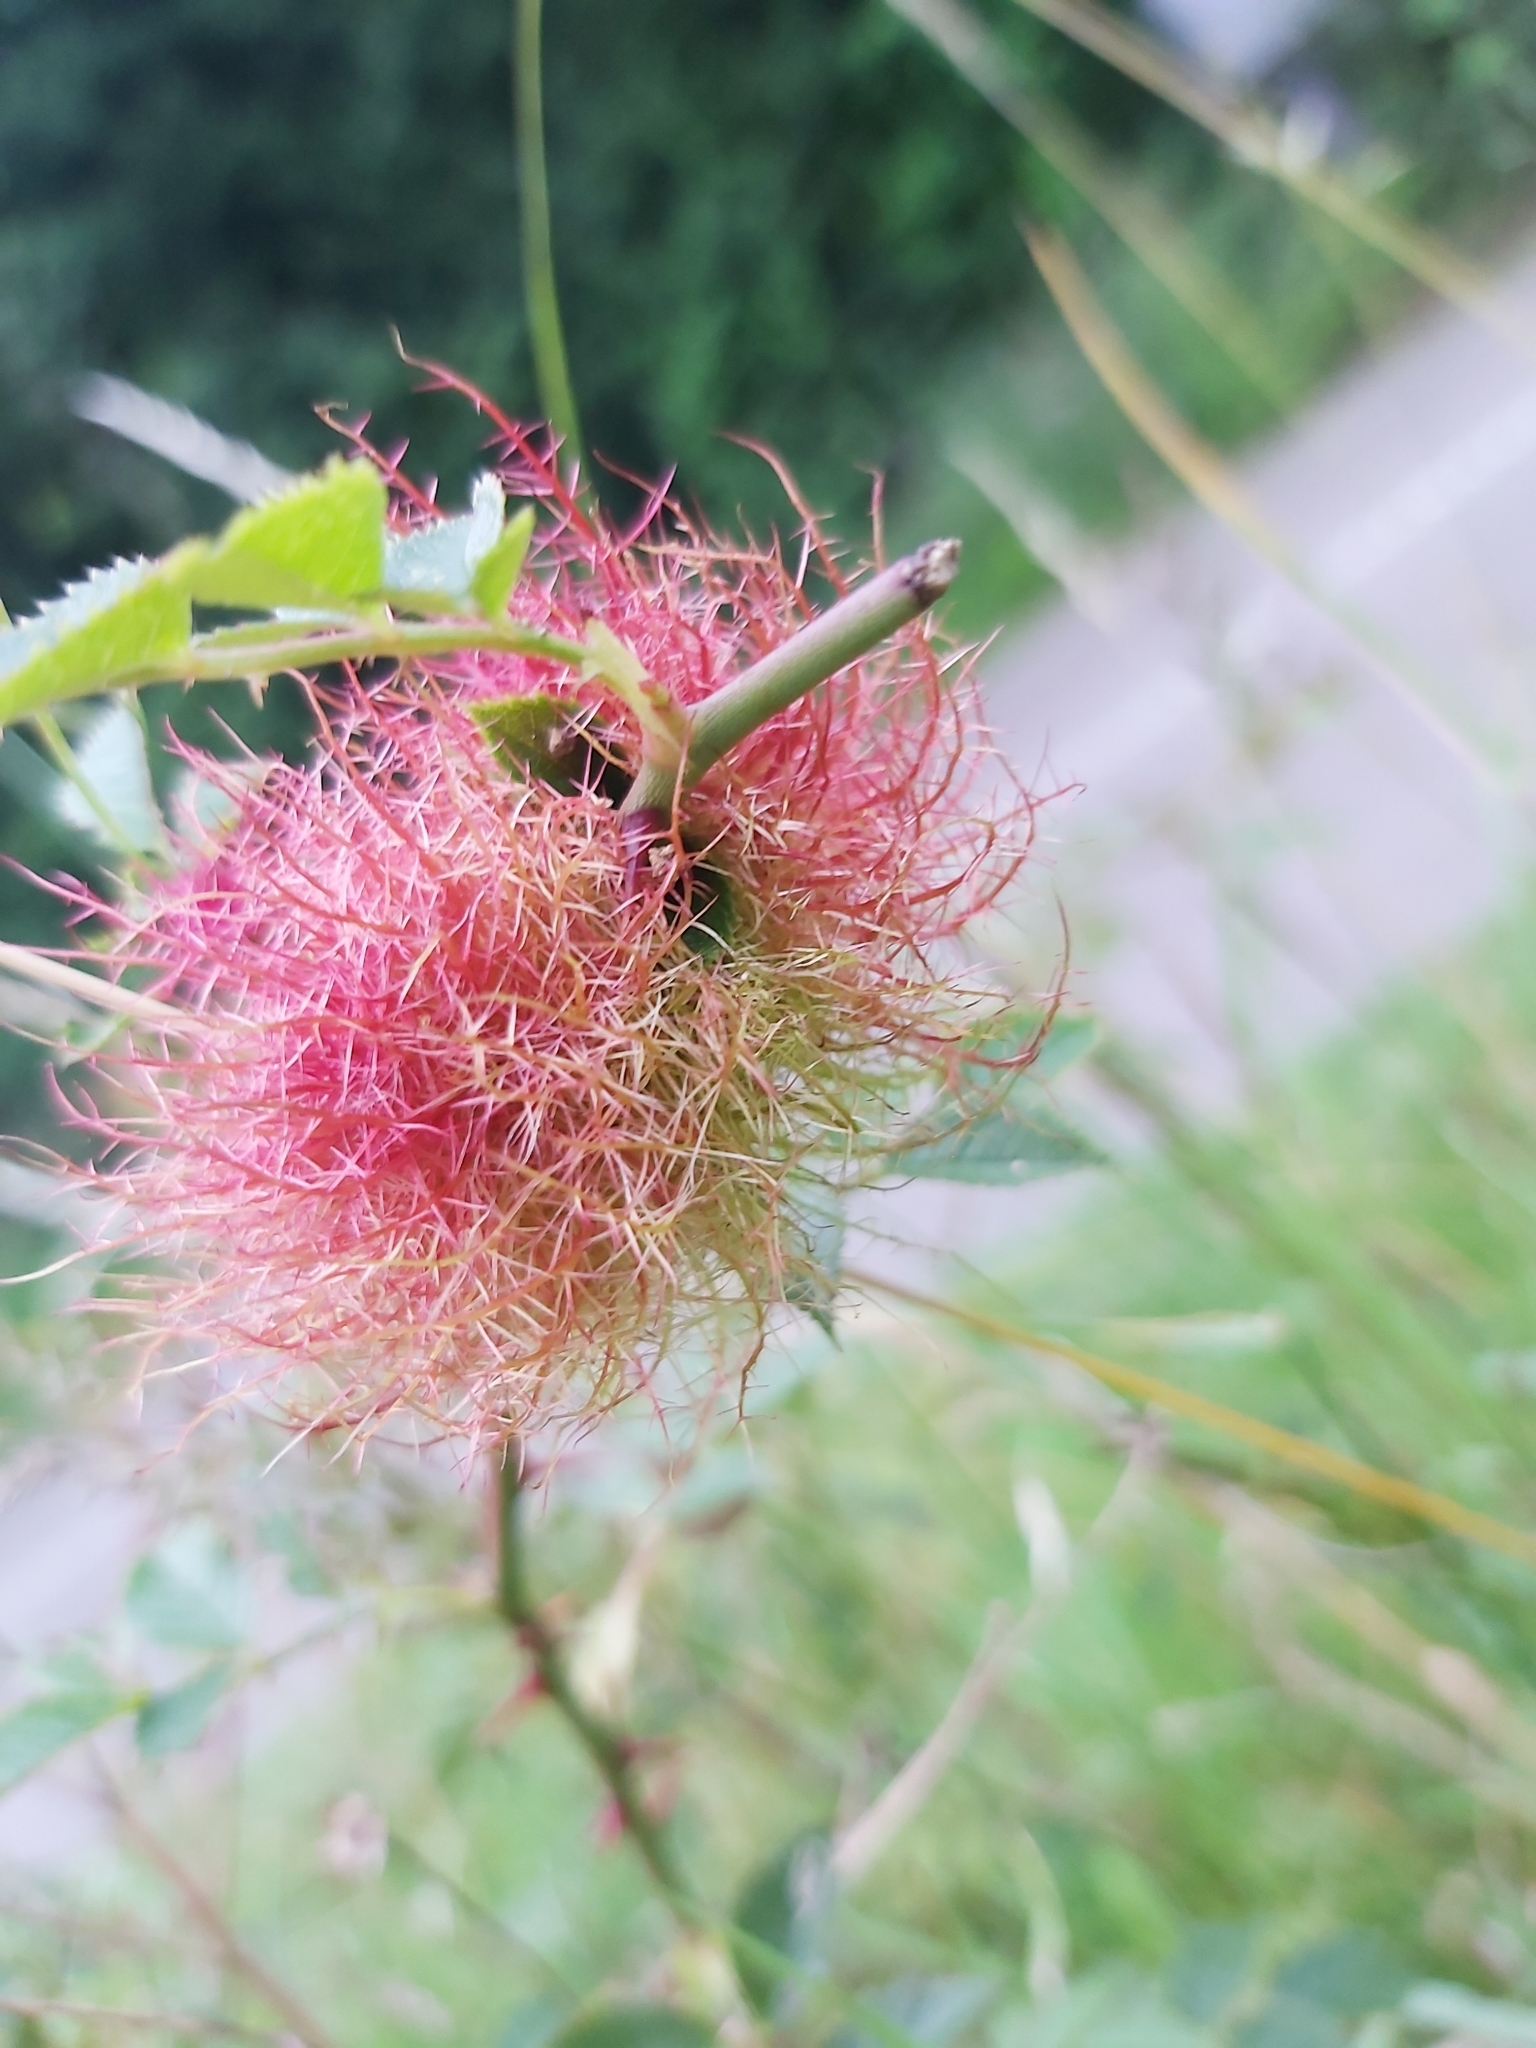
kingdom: Animalia
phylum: Arthropoda
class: Insecta
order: Hymenoptera
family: Cynipidae
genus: Diplolepis
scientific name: Diplolepis rosae
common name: Bedeguar gall
